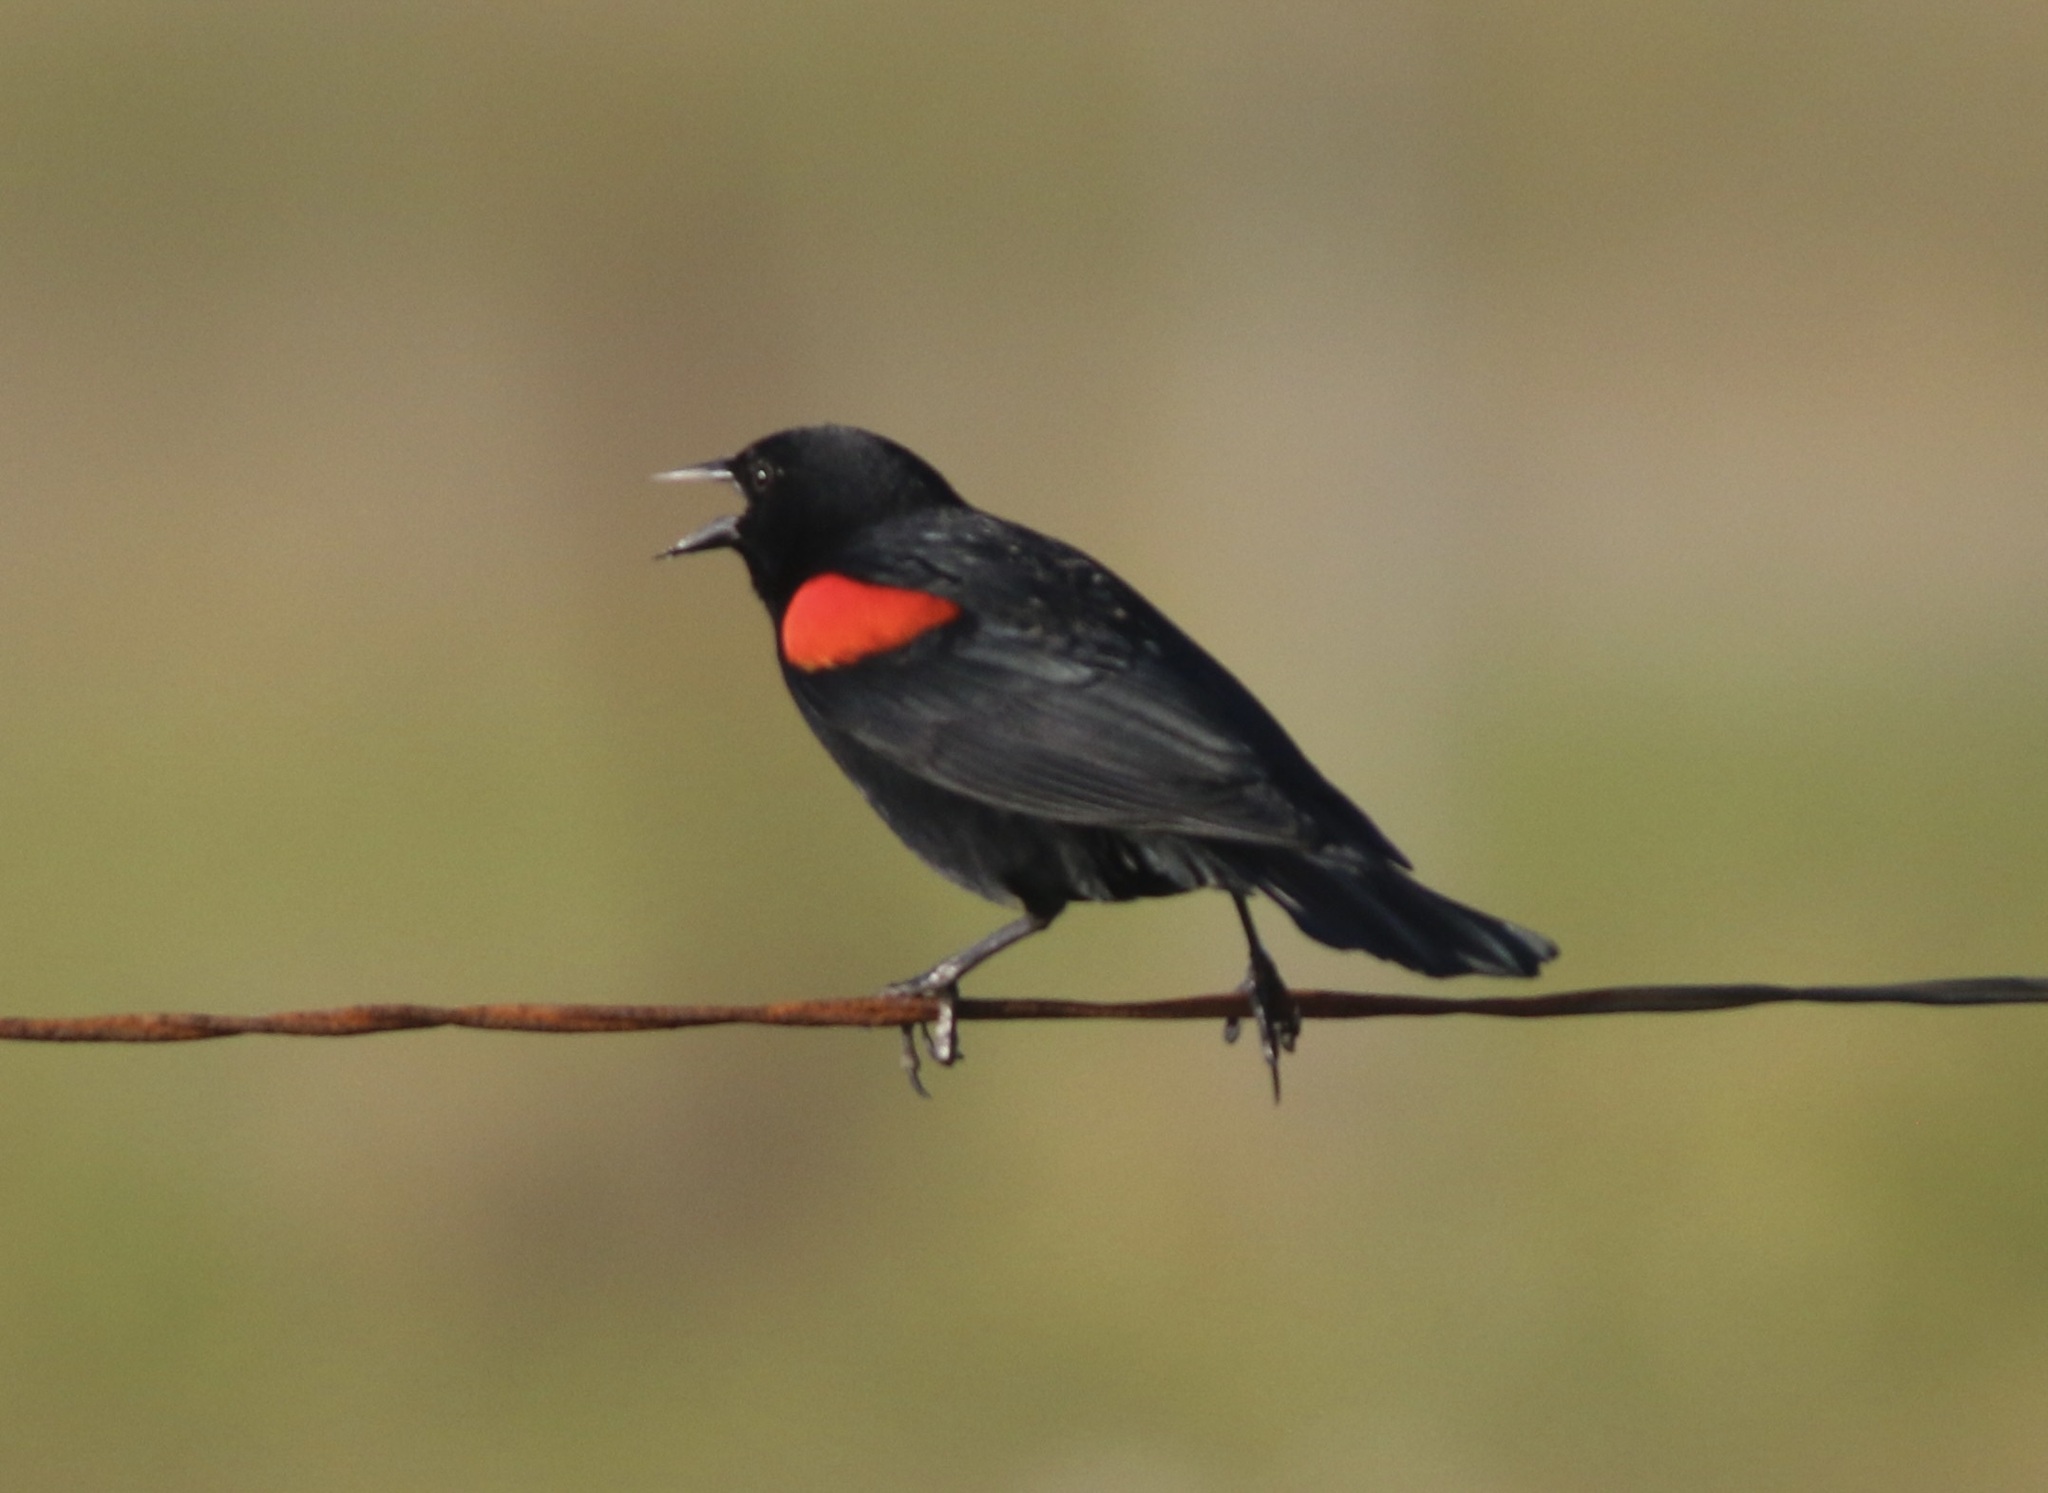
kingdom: Animalia
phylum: Chordata
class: Aves
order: Passeriformes
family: Icteridae
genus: Agelaius
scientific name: Agelaius phoeniceus
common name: Red-winged blackbird
